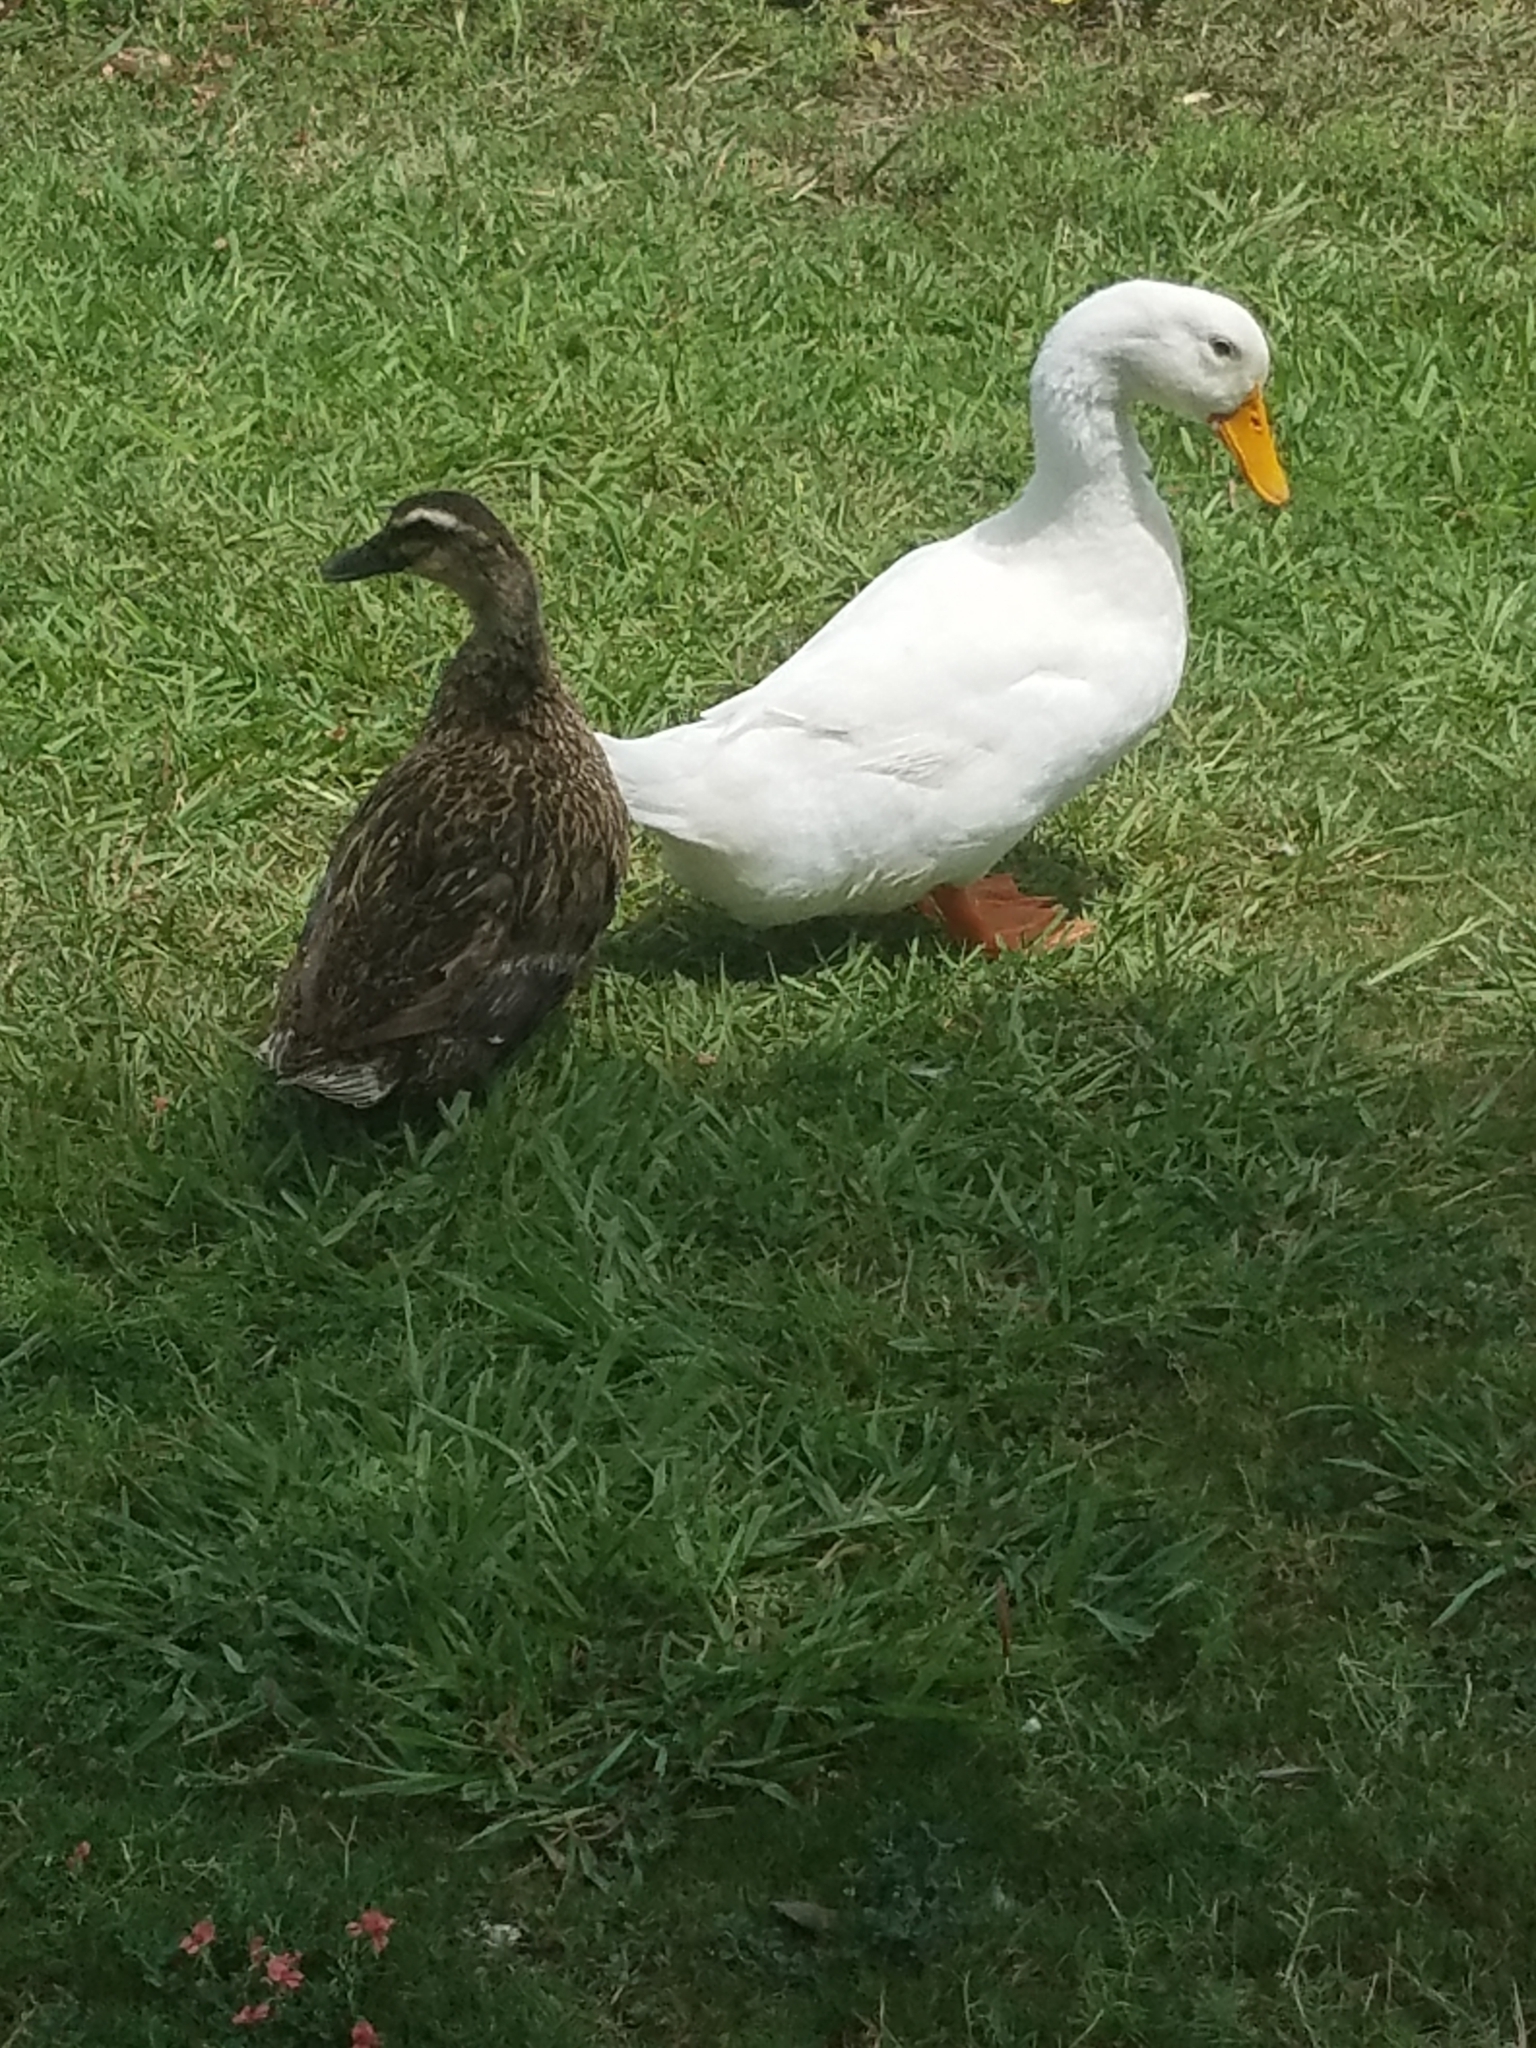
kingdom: Animalia
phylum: Chordata
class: Aves
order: Anseriformes
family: Anatidae
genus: Anas
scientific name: Anas platyrhynchos
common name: Mallard
